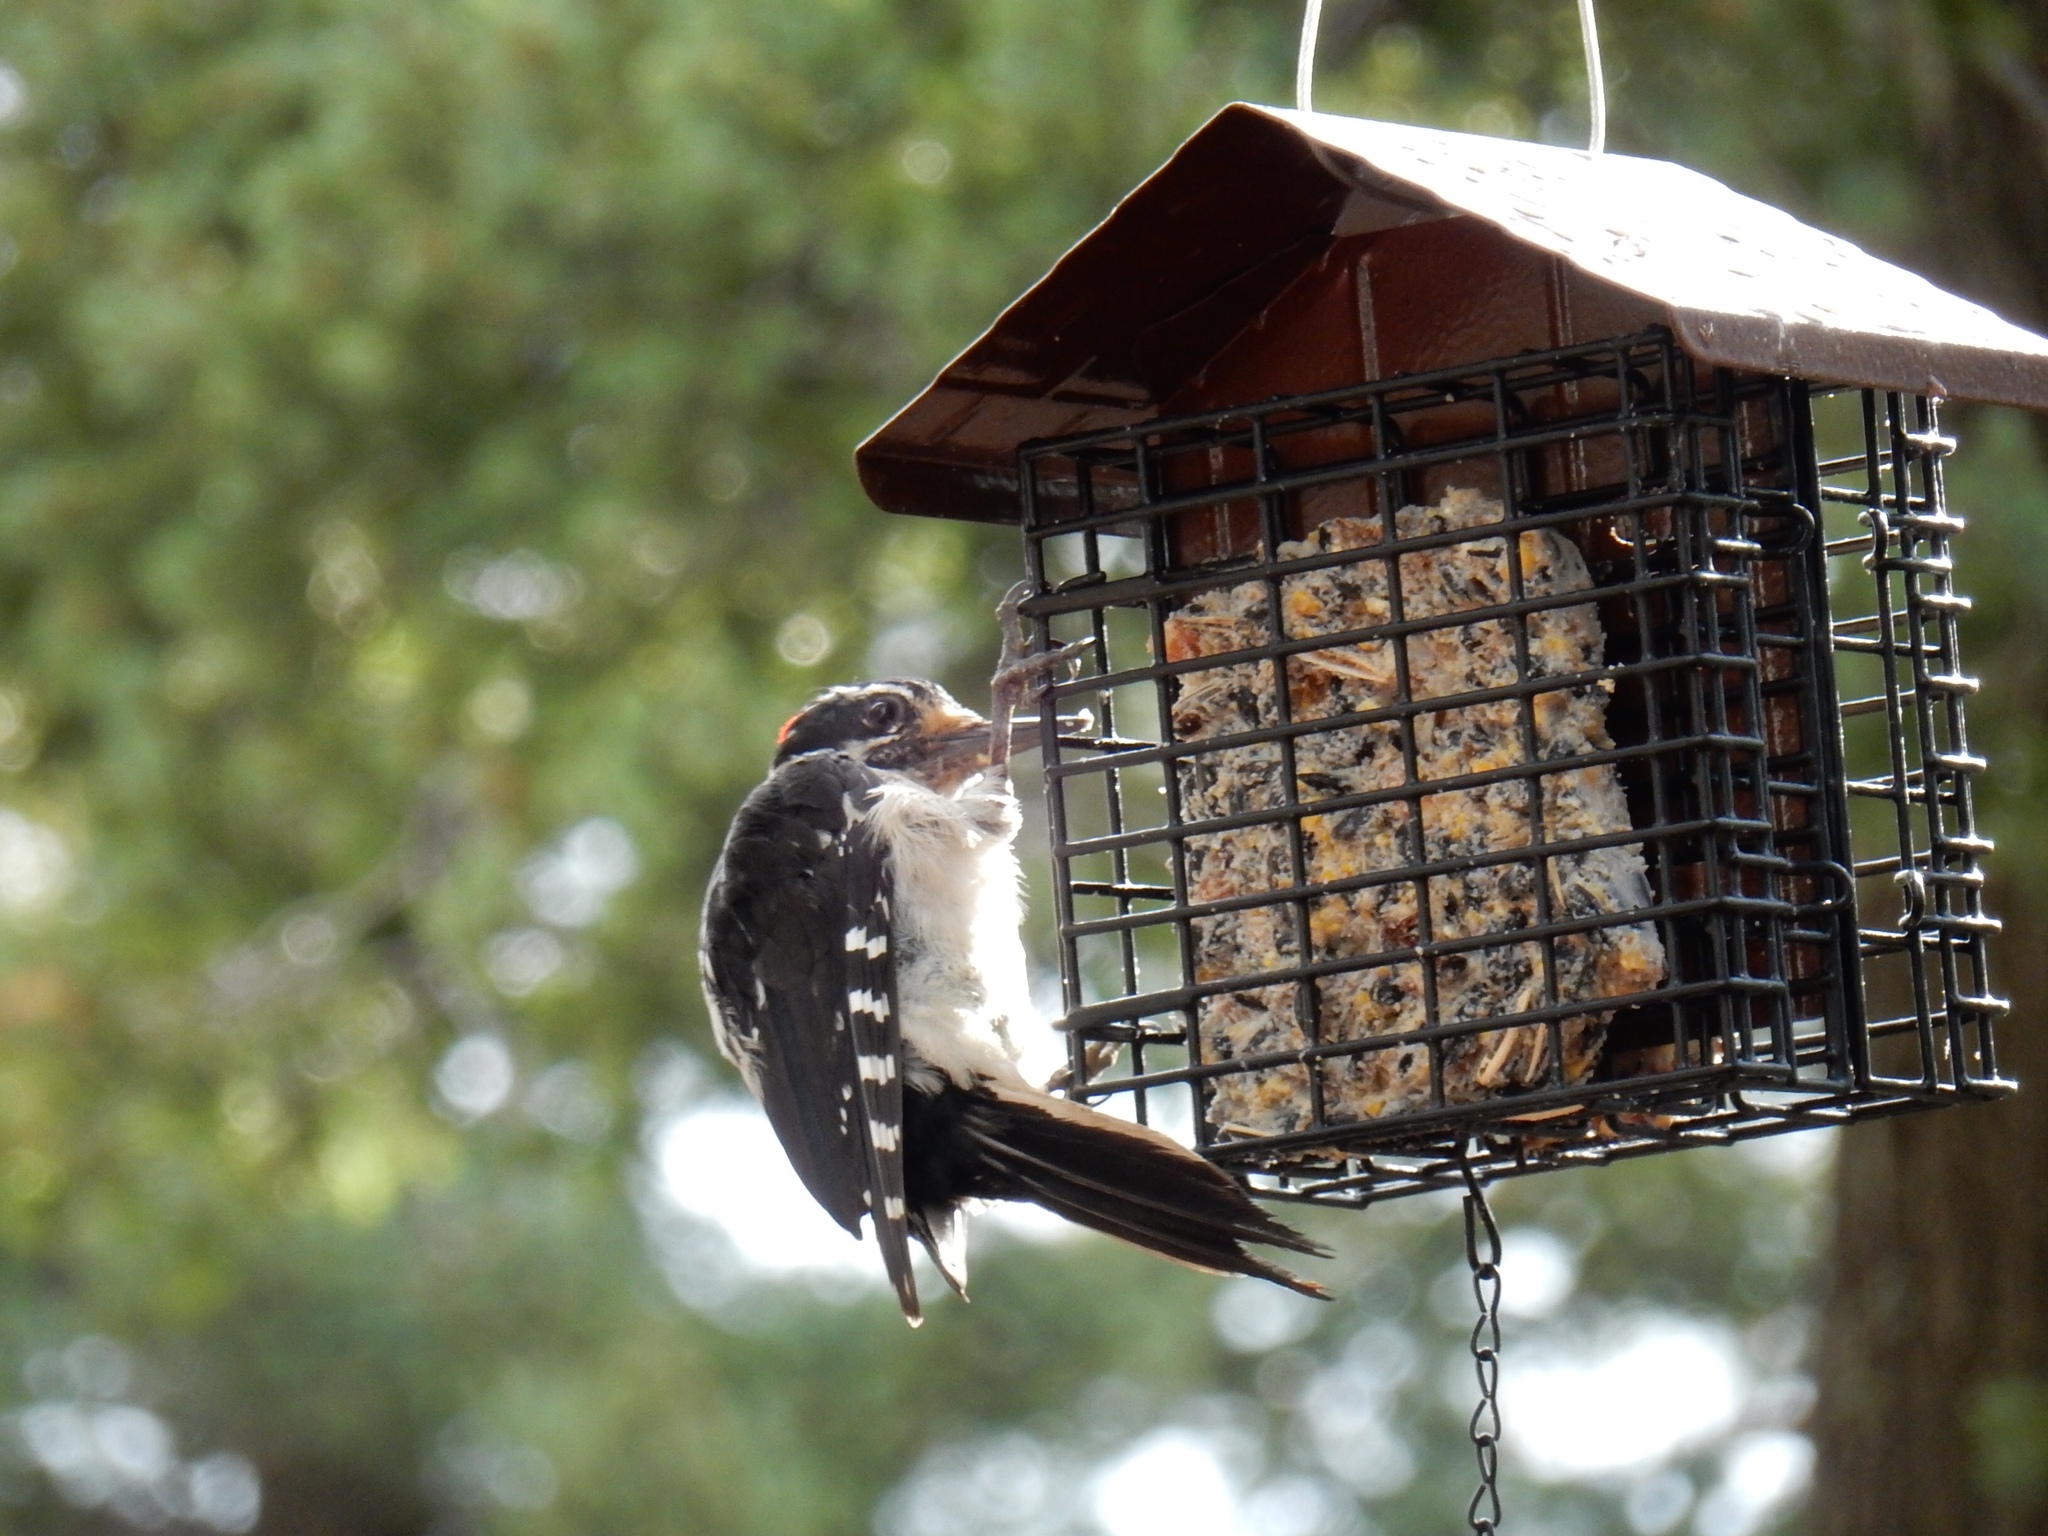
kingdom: Animalia
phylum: Chordata
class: Aves
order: Piciformes
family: Picidae
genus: Leuconotopicus
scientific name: Leuconotopicus villosus
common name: Hairy woodpecker
